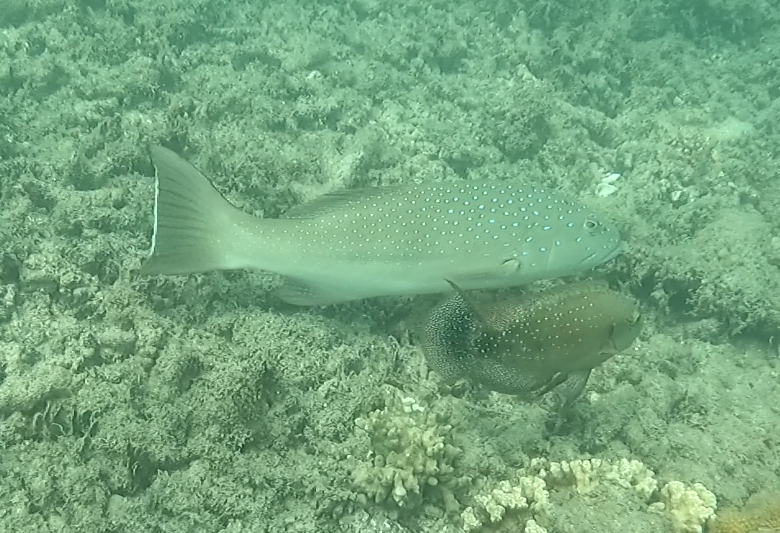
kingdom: Animalia
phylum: Chordata
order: Perciformes
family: Serranidae
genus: Plectropomus
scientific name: Plectropomus maculatus
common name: Spotted coralgrouper
